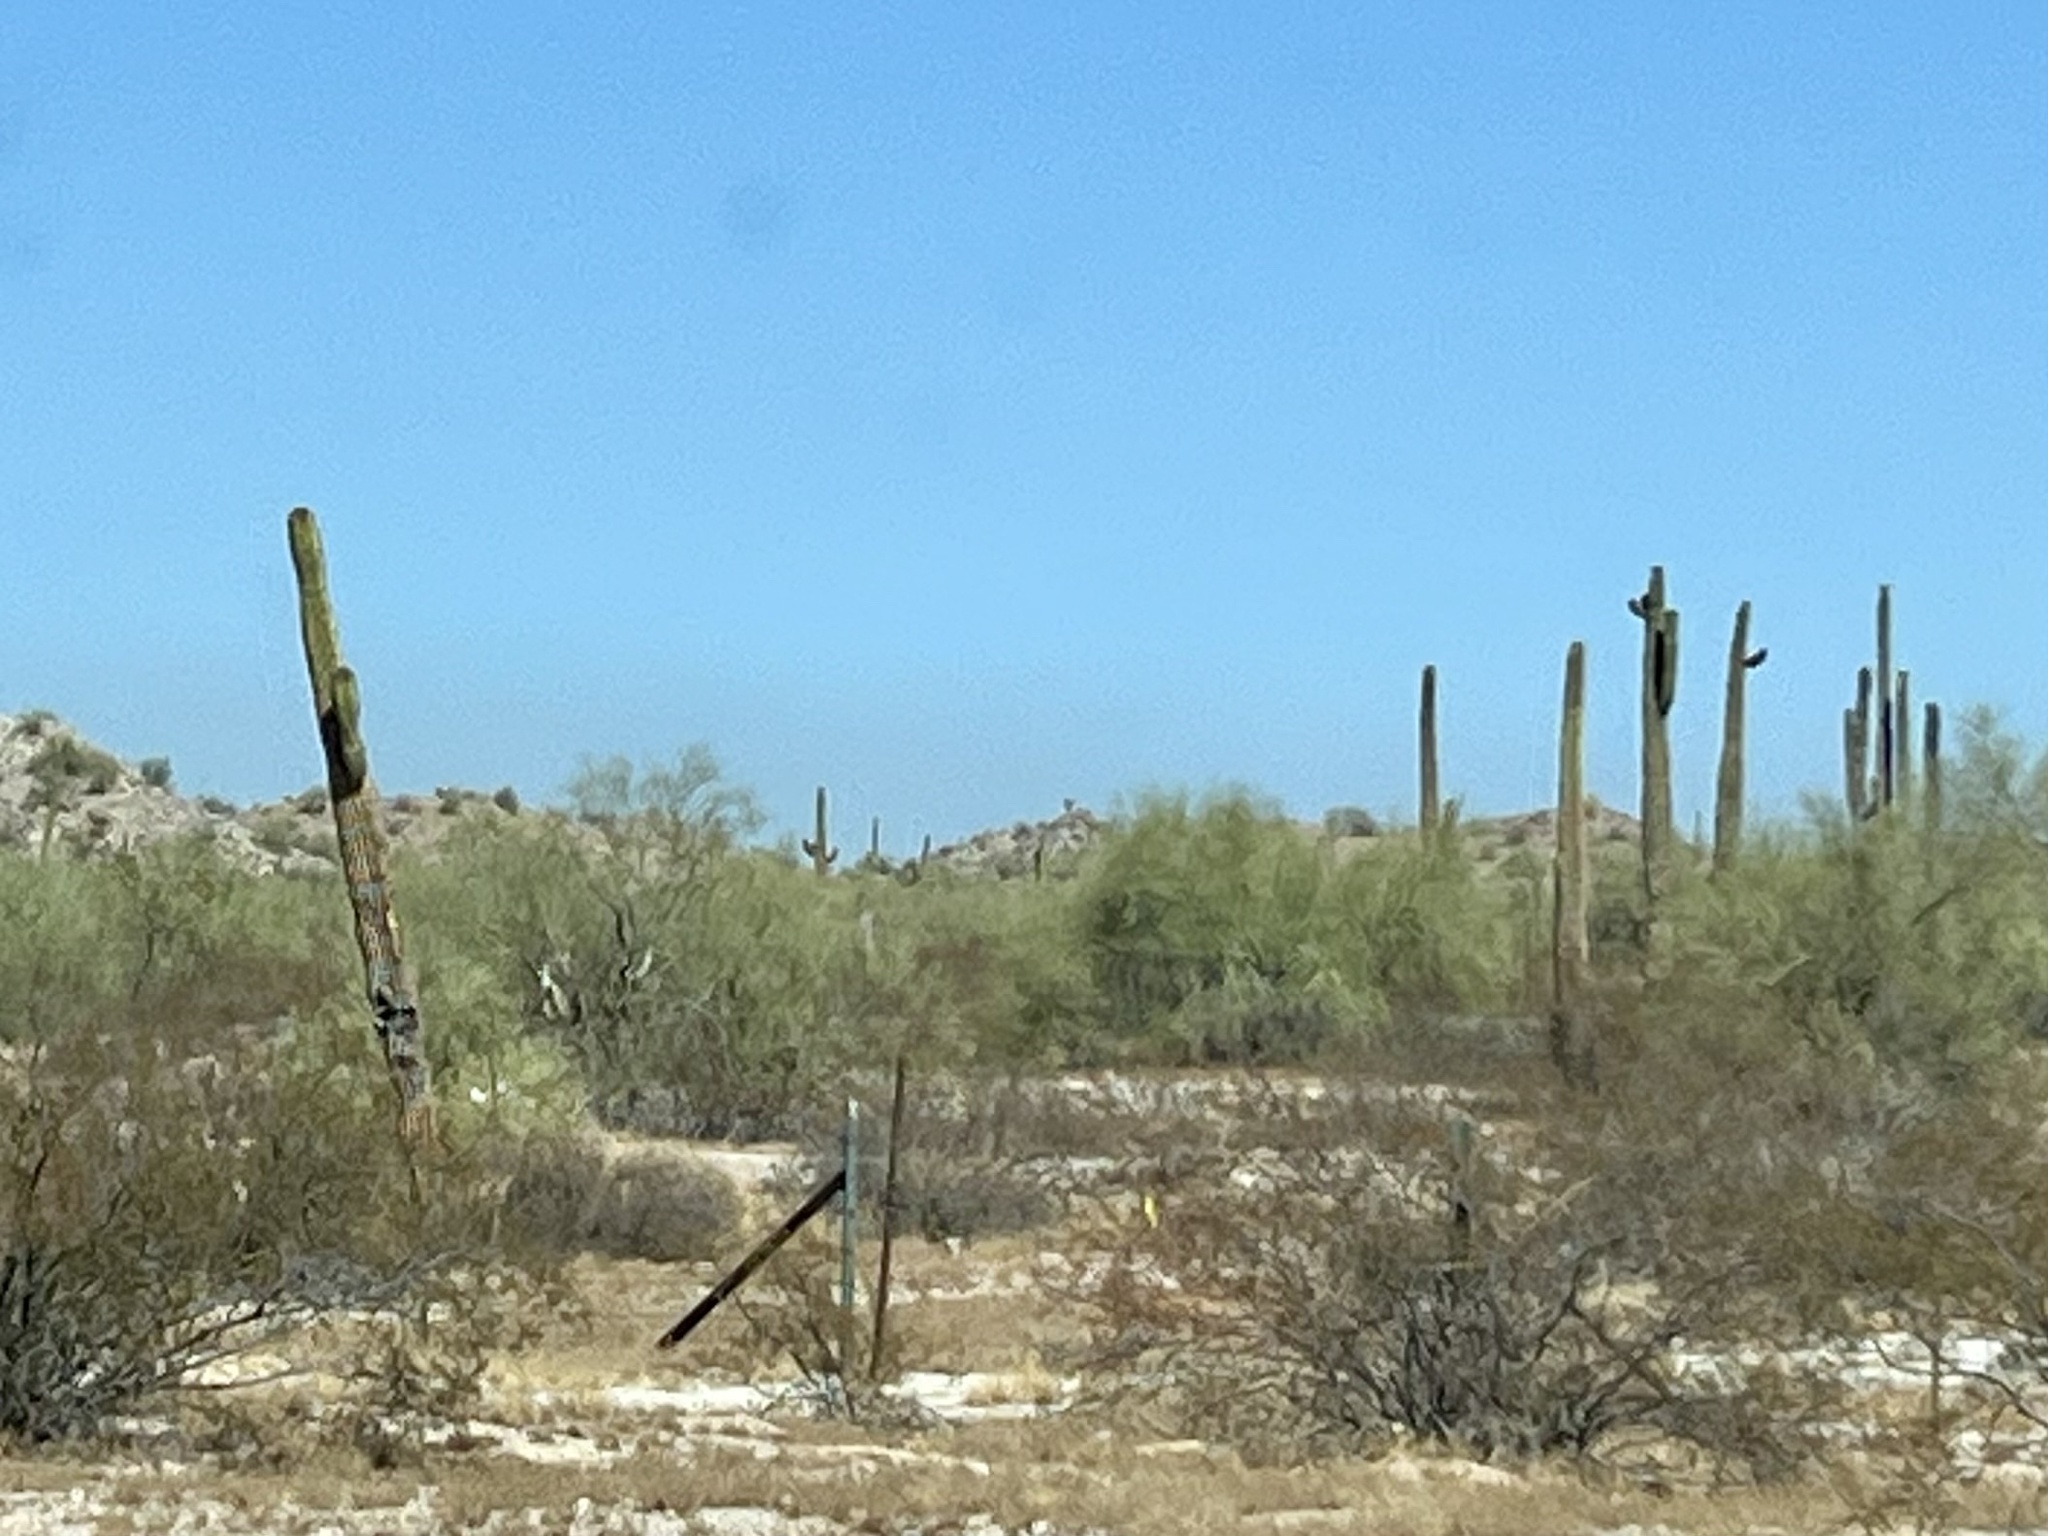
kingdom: Plantae
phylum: Tracheophyta
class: Magnoliopsida
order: Caryophyllales
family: Cactaceae
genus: Carnegiea
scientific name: Carnegiea gigantea
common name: Saguaro
